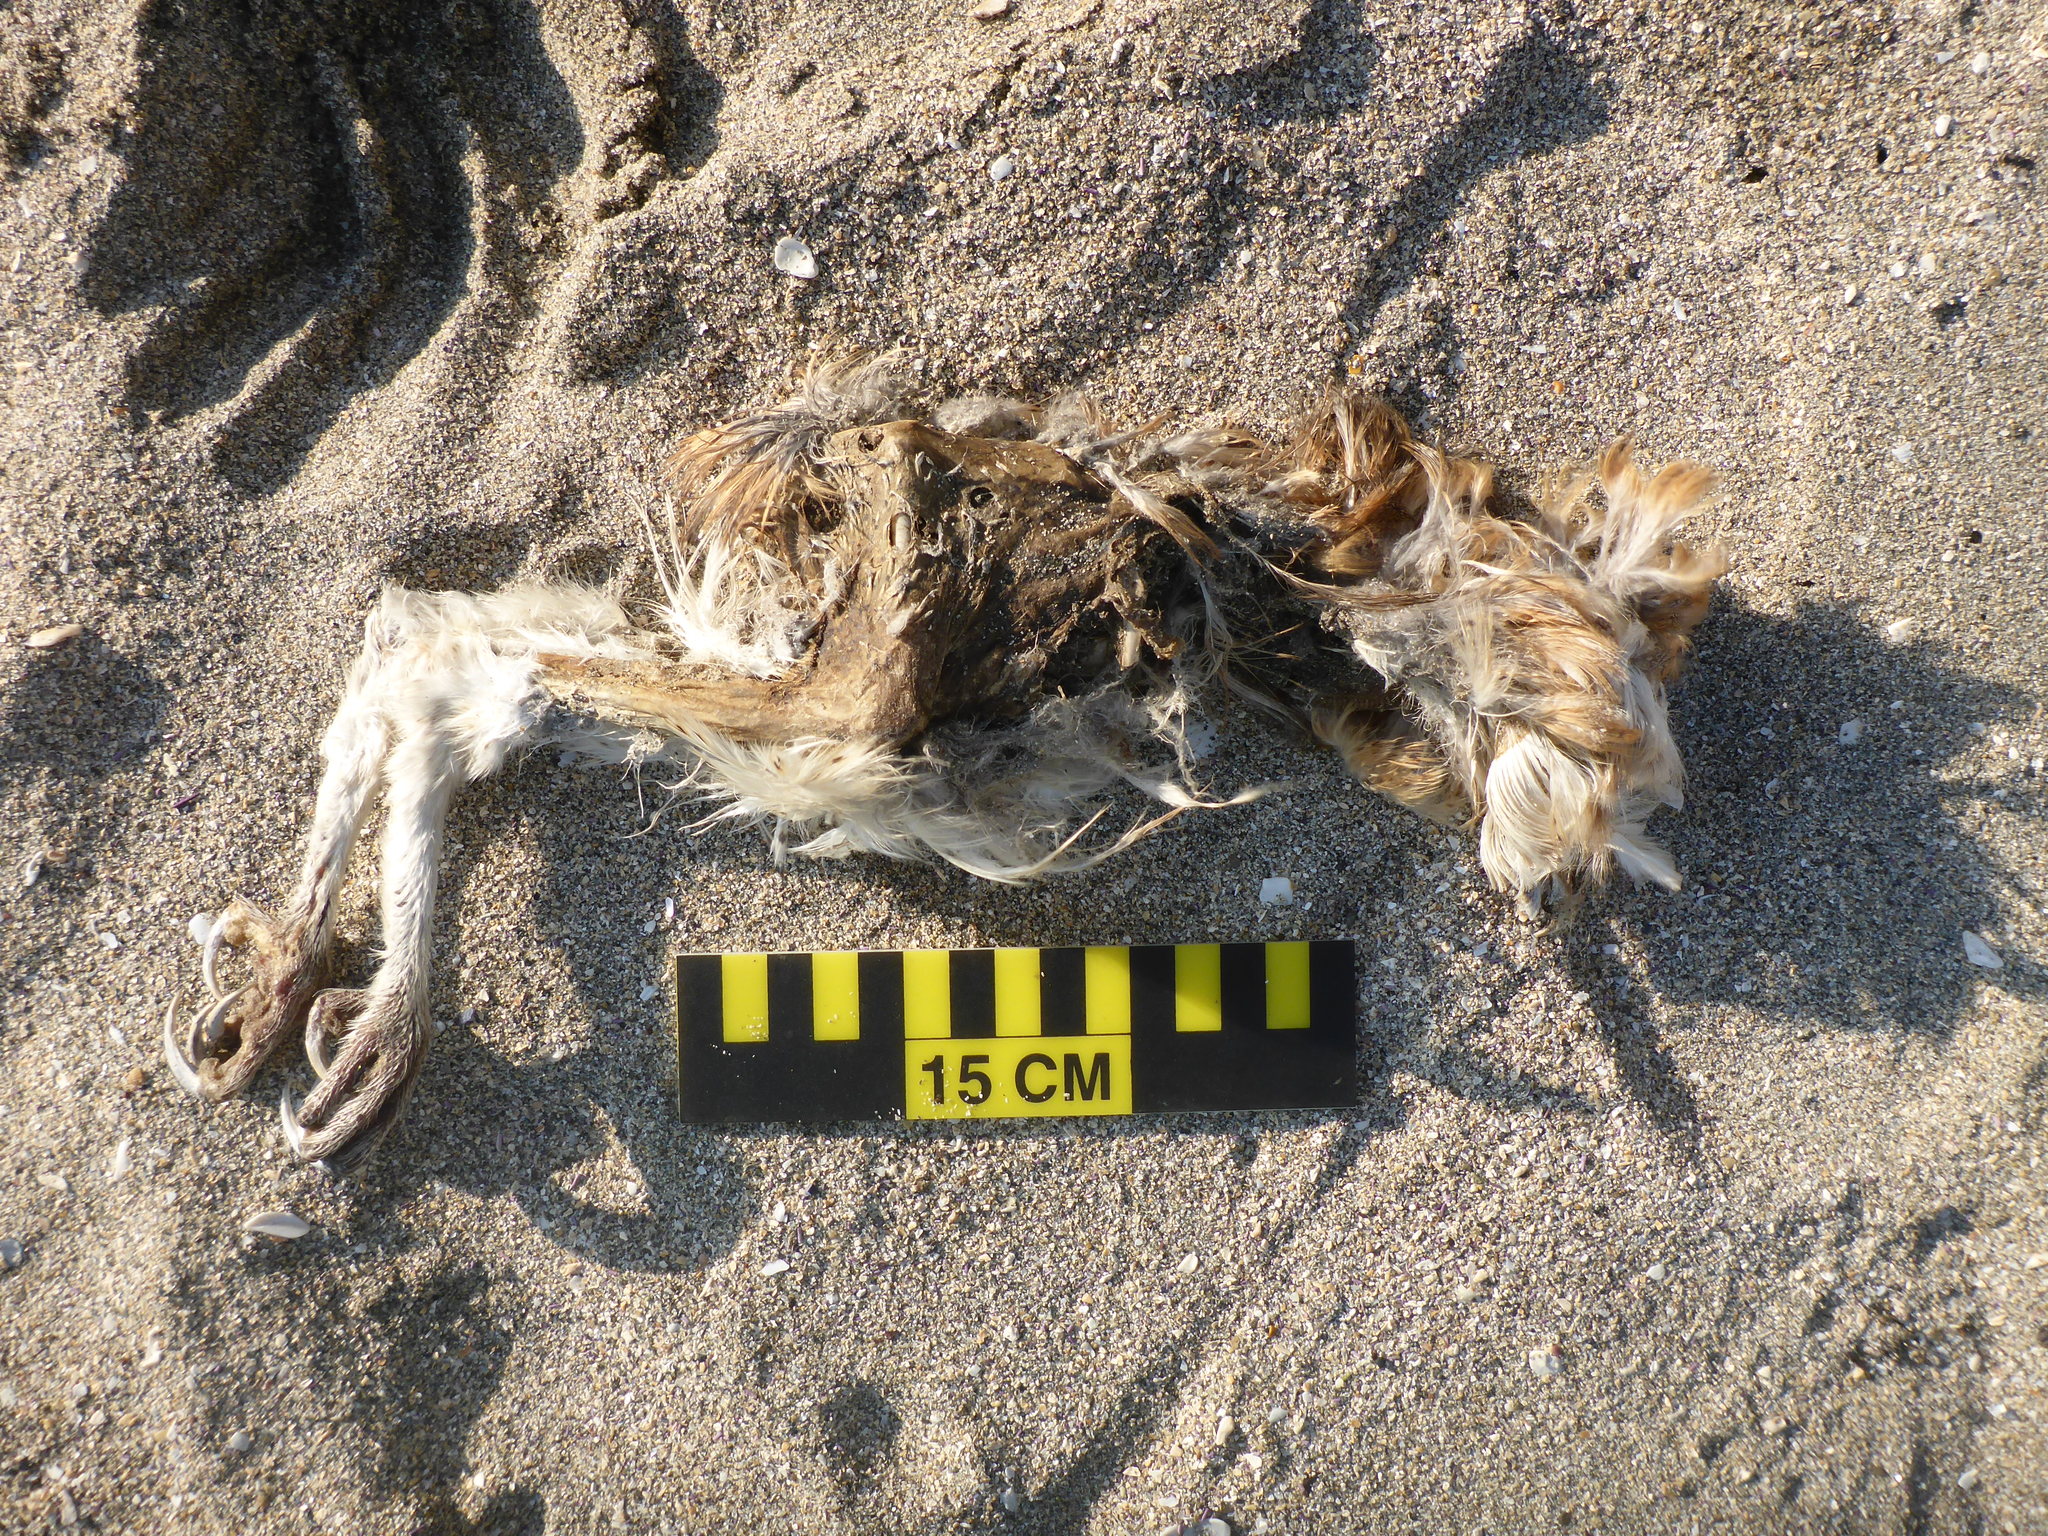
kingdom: Animalia
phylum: Chordata
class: Aves
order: Strigiformes
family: Tytonidae
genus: Tyto
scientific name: Tyto alba
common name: Barn owl
